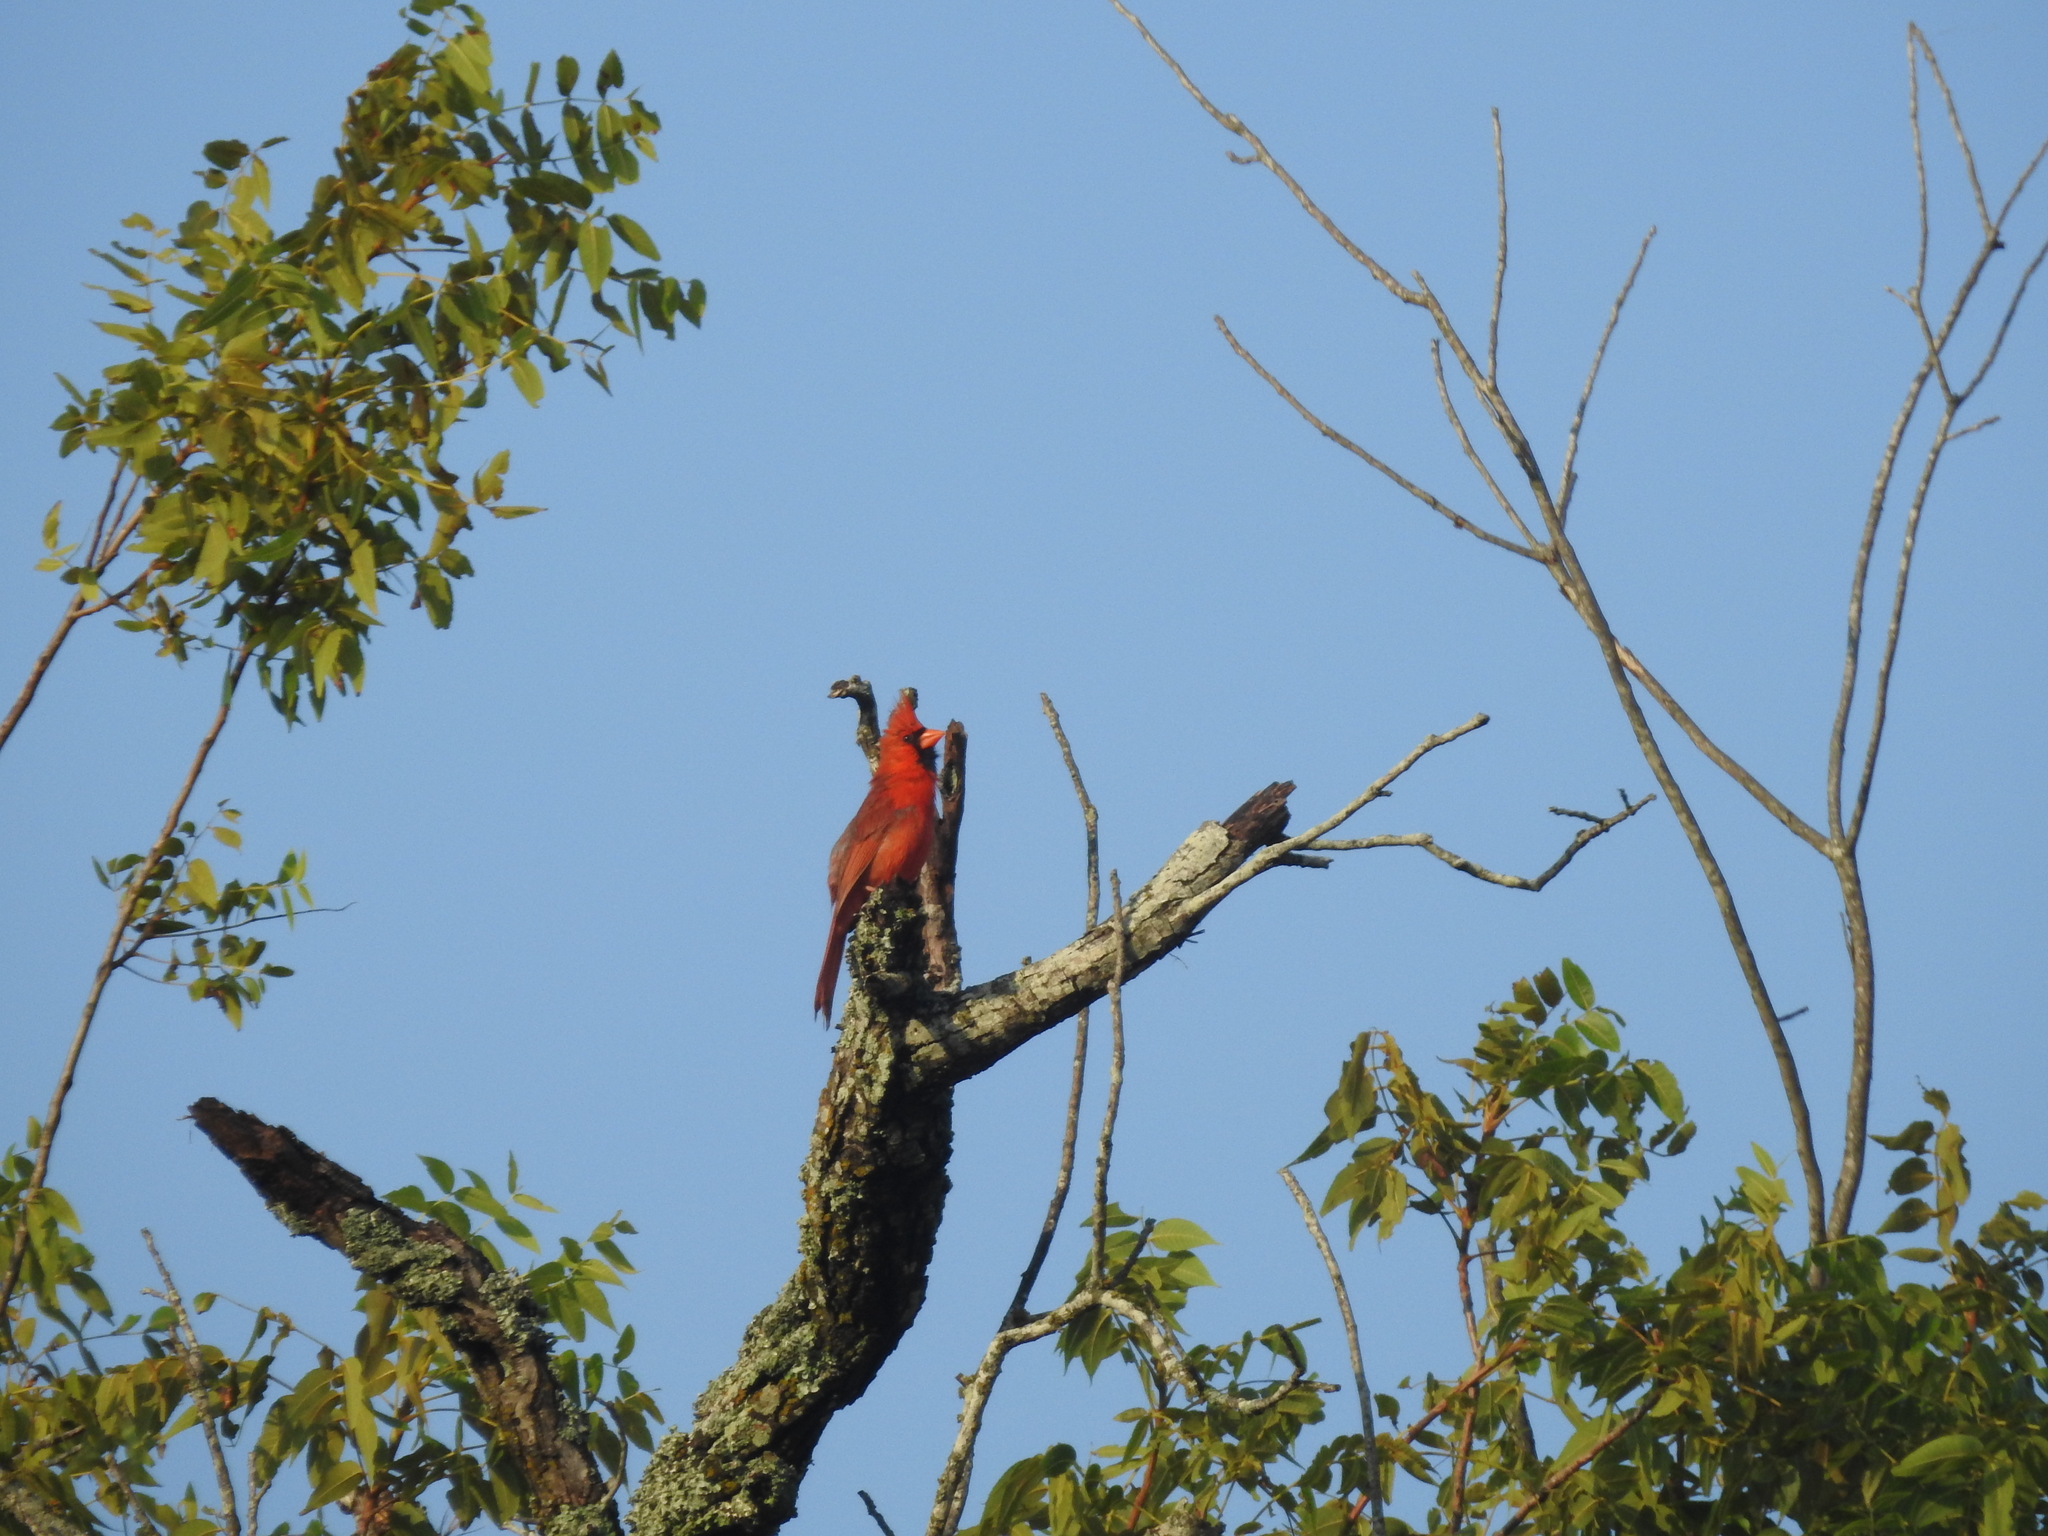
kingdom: Animalia
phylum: Chordata
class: Aves
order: Passeriformes
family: Cardinalidae
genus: Cardinalis
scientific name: Cardinalis cardinalis
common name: Northern cardinal
